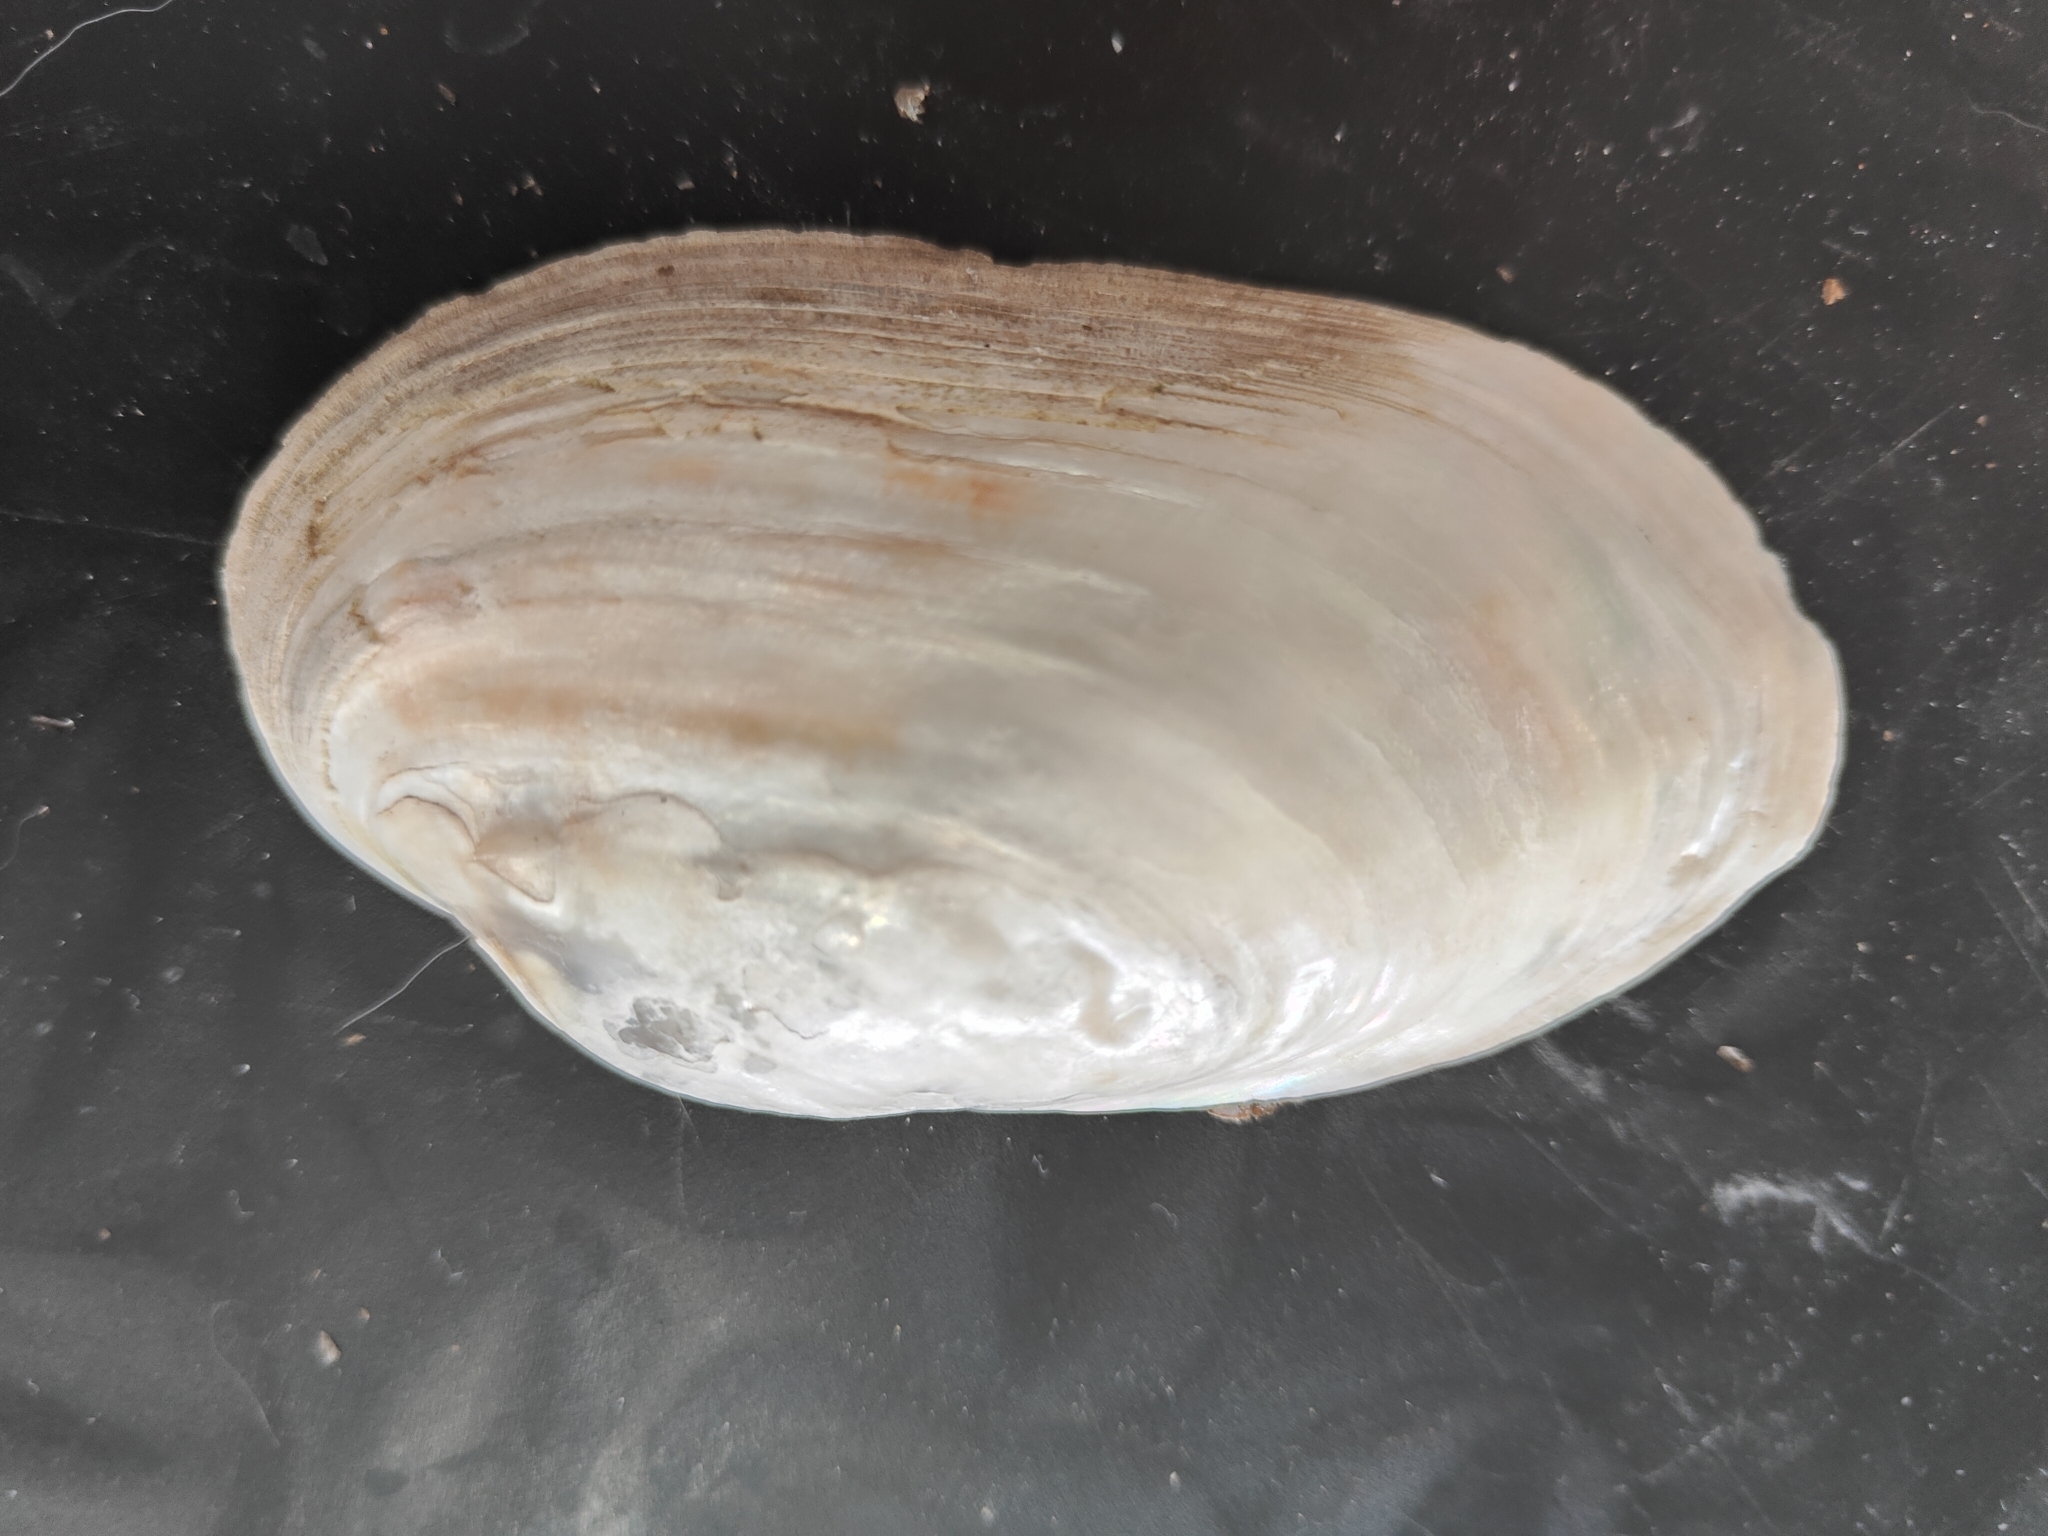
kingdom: Animalia
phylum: Mollusca
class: Bivalvia
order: Unionida
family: Unionidae
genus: Lampsilis
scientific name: Lampsilis siliquoidea
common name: Fatmucket
